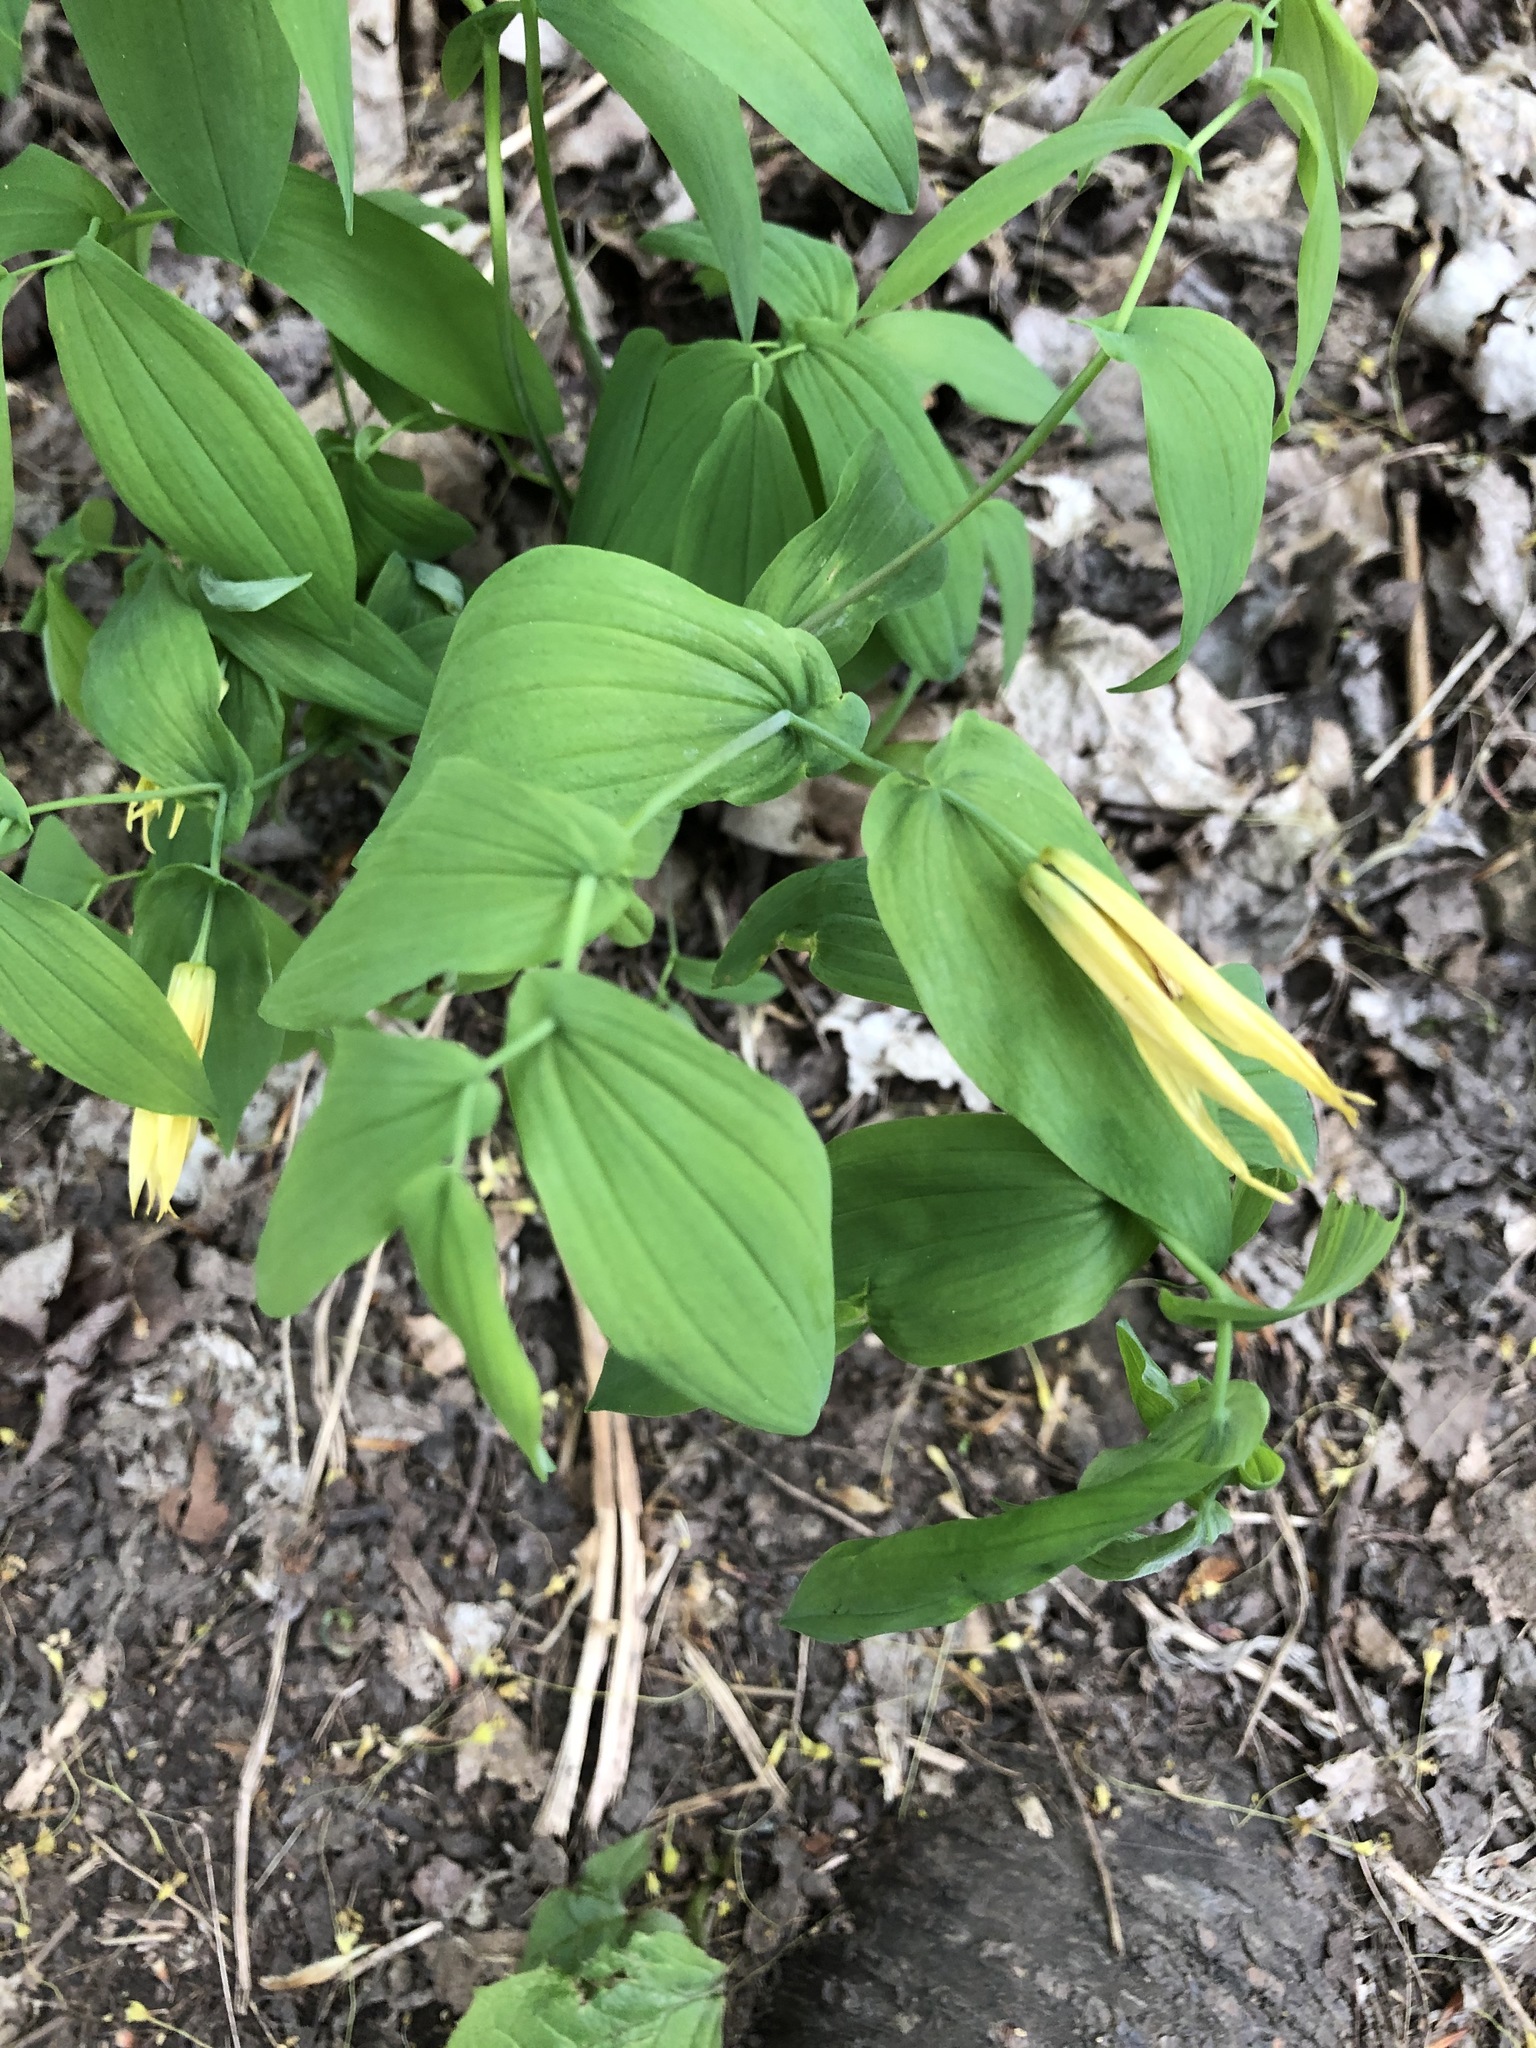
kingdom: Plantae
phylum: Tracheophyta
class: Liliopsida
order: Liliales
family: Colchicaceae
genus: Uvularia
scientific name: Uvularia grandiflora
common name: Bellwort
